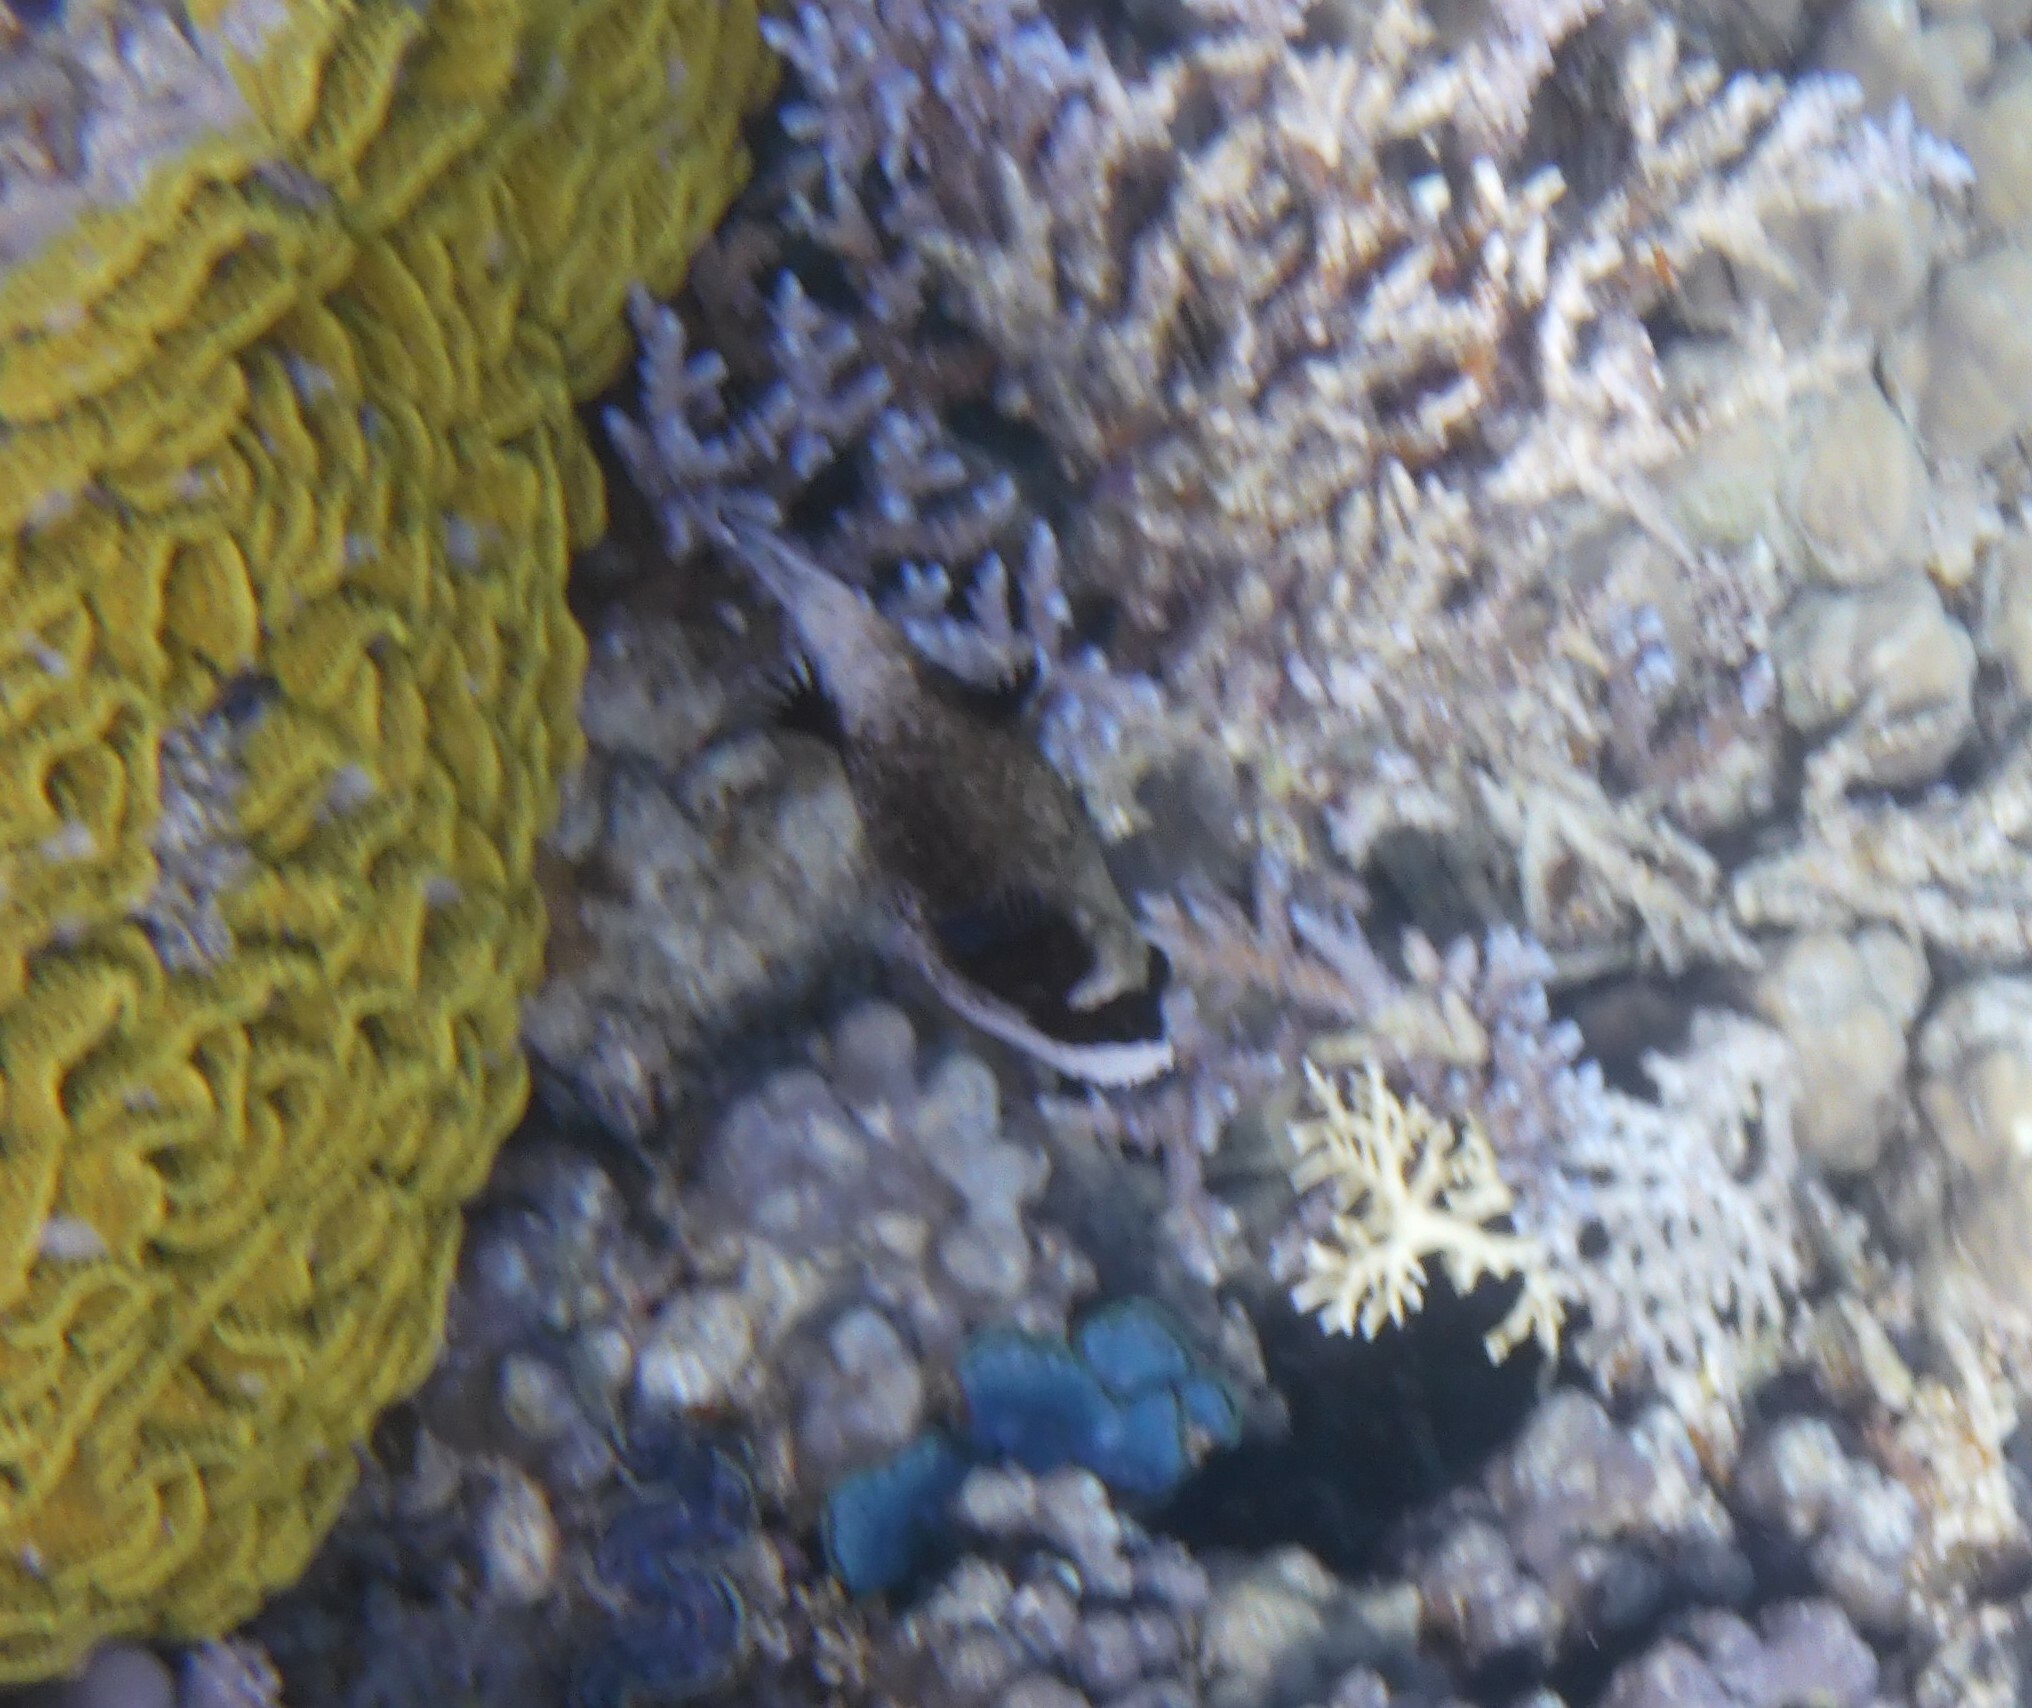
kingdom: Animalia
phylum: Chordata
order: Tetraodontiformes
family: Tetraodontidae
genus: Arothron
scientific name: Arothron diadematus
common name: Masked puffer
